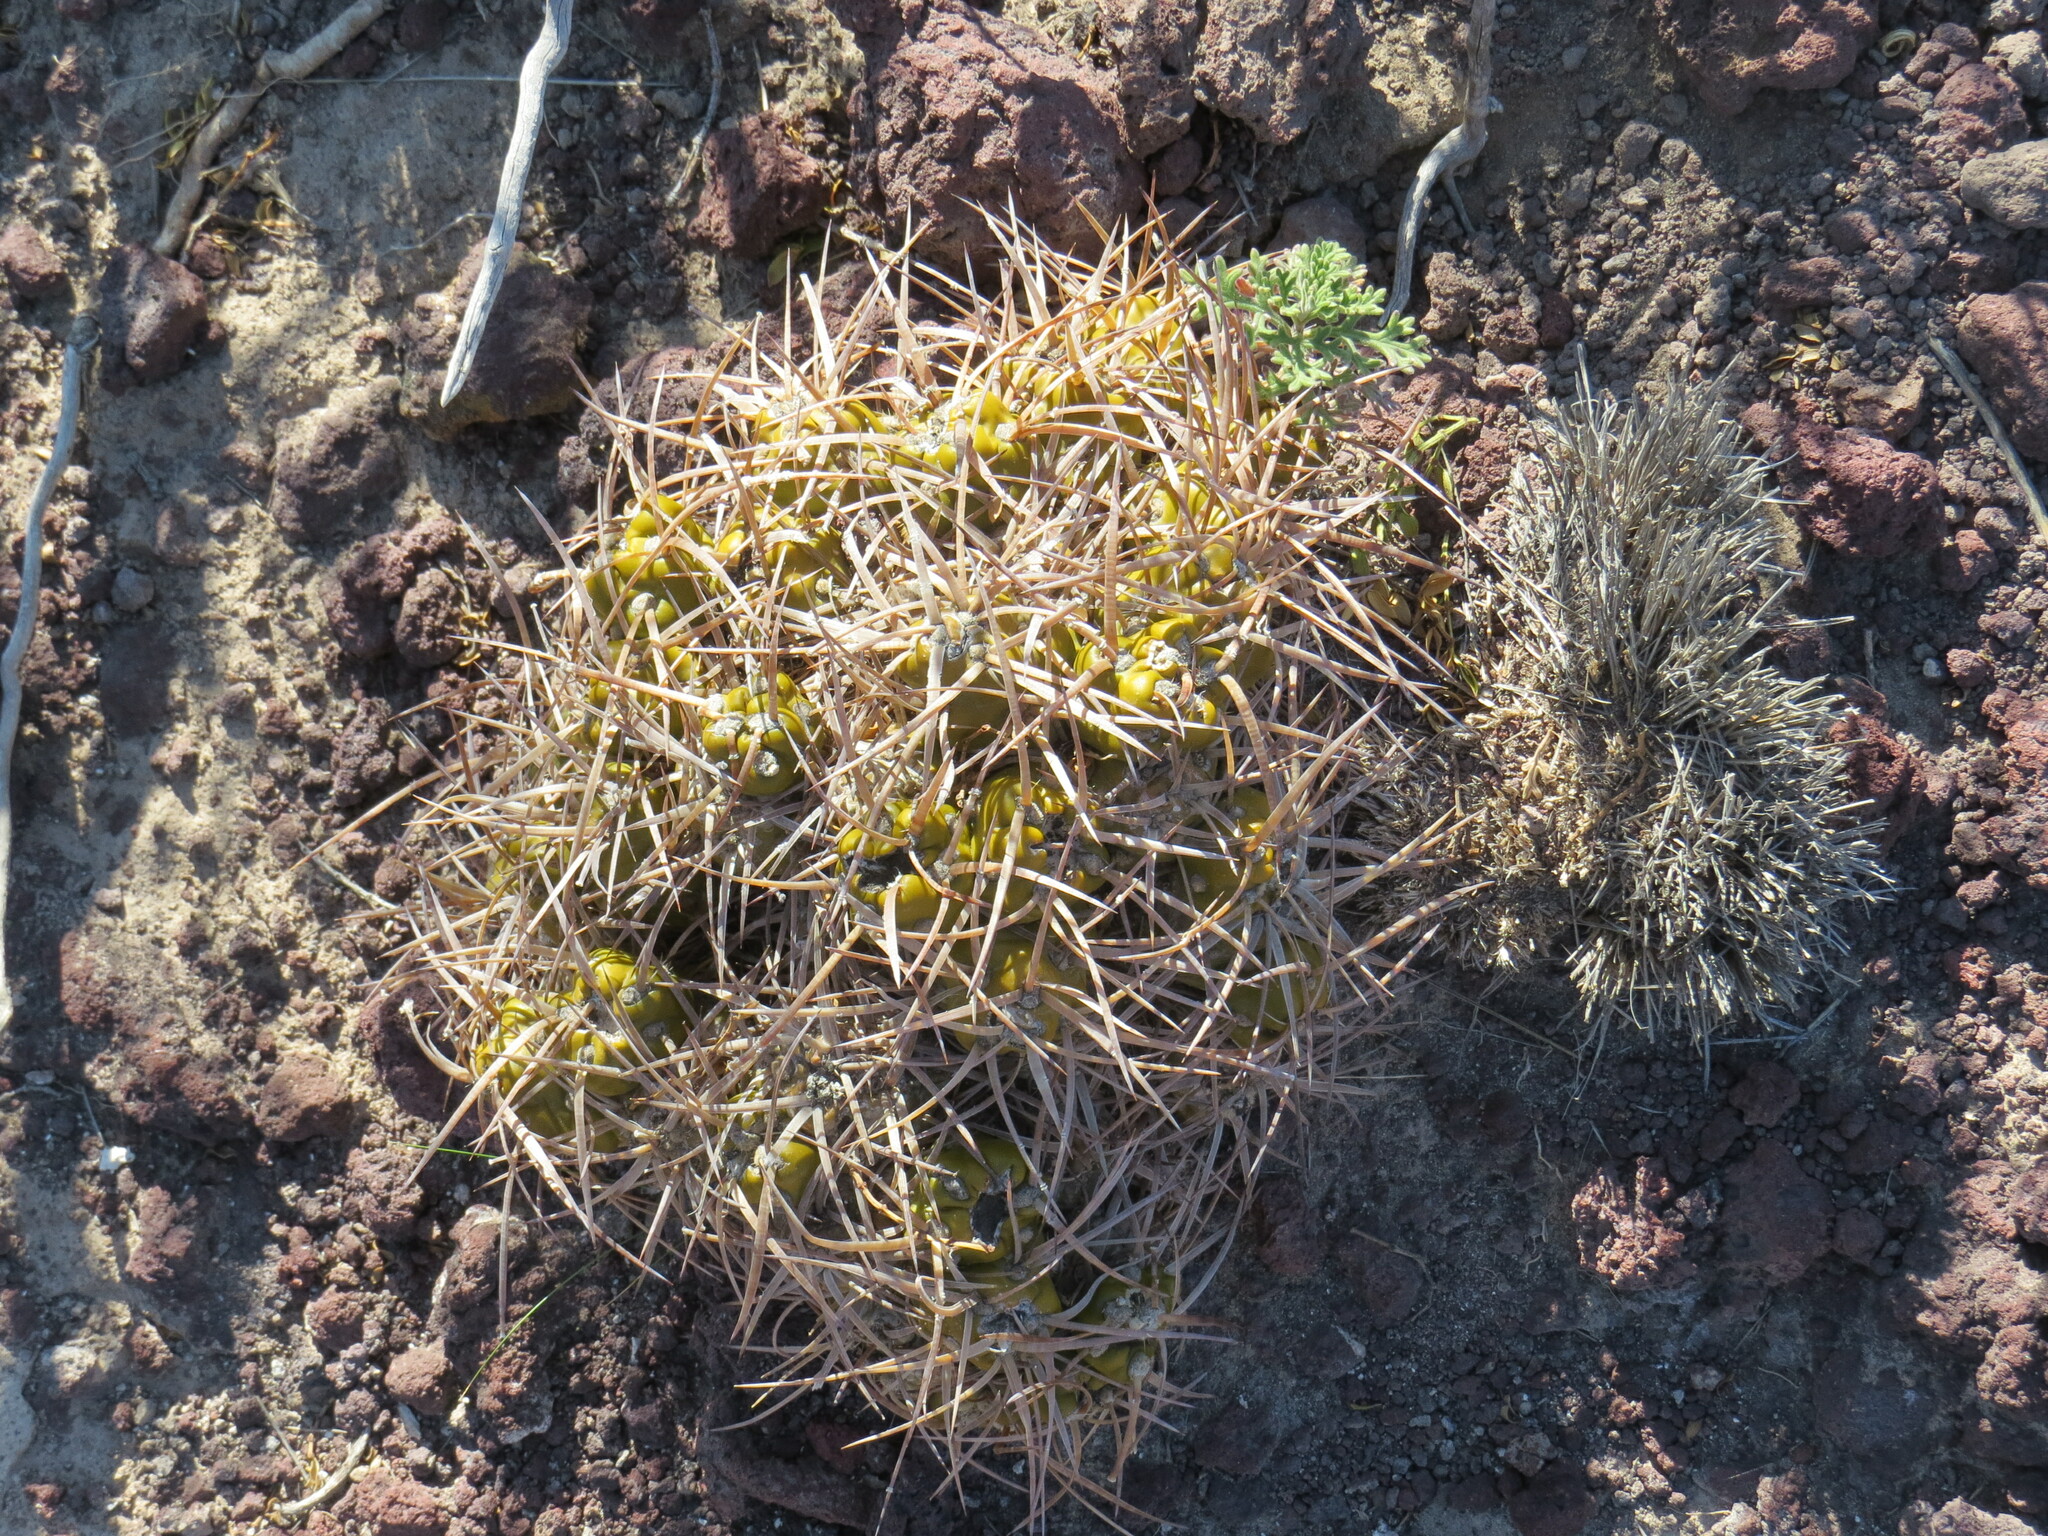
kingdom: Plantae
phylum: Tracheophyta
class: Magnoliopsida
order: Caryophyllales
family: Cactaceae
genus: Maihueniopsis
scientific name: Maihueniopsis platyacantha
